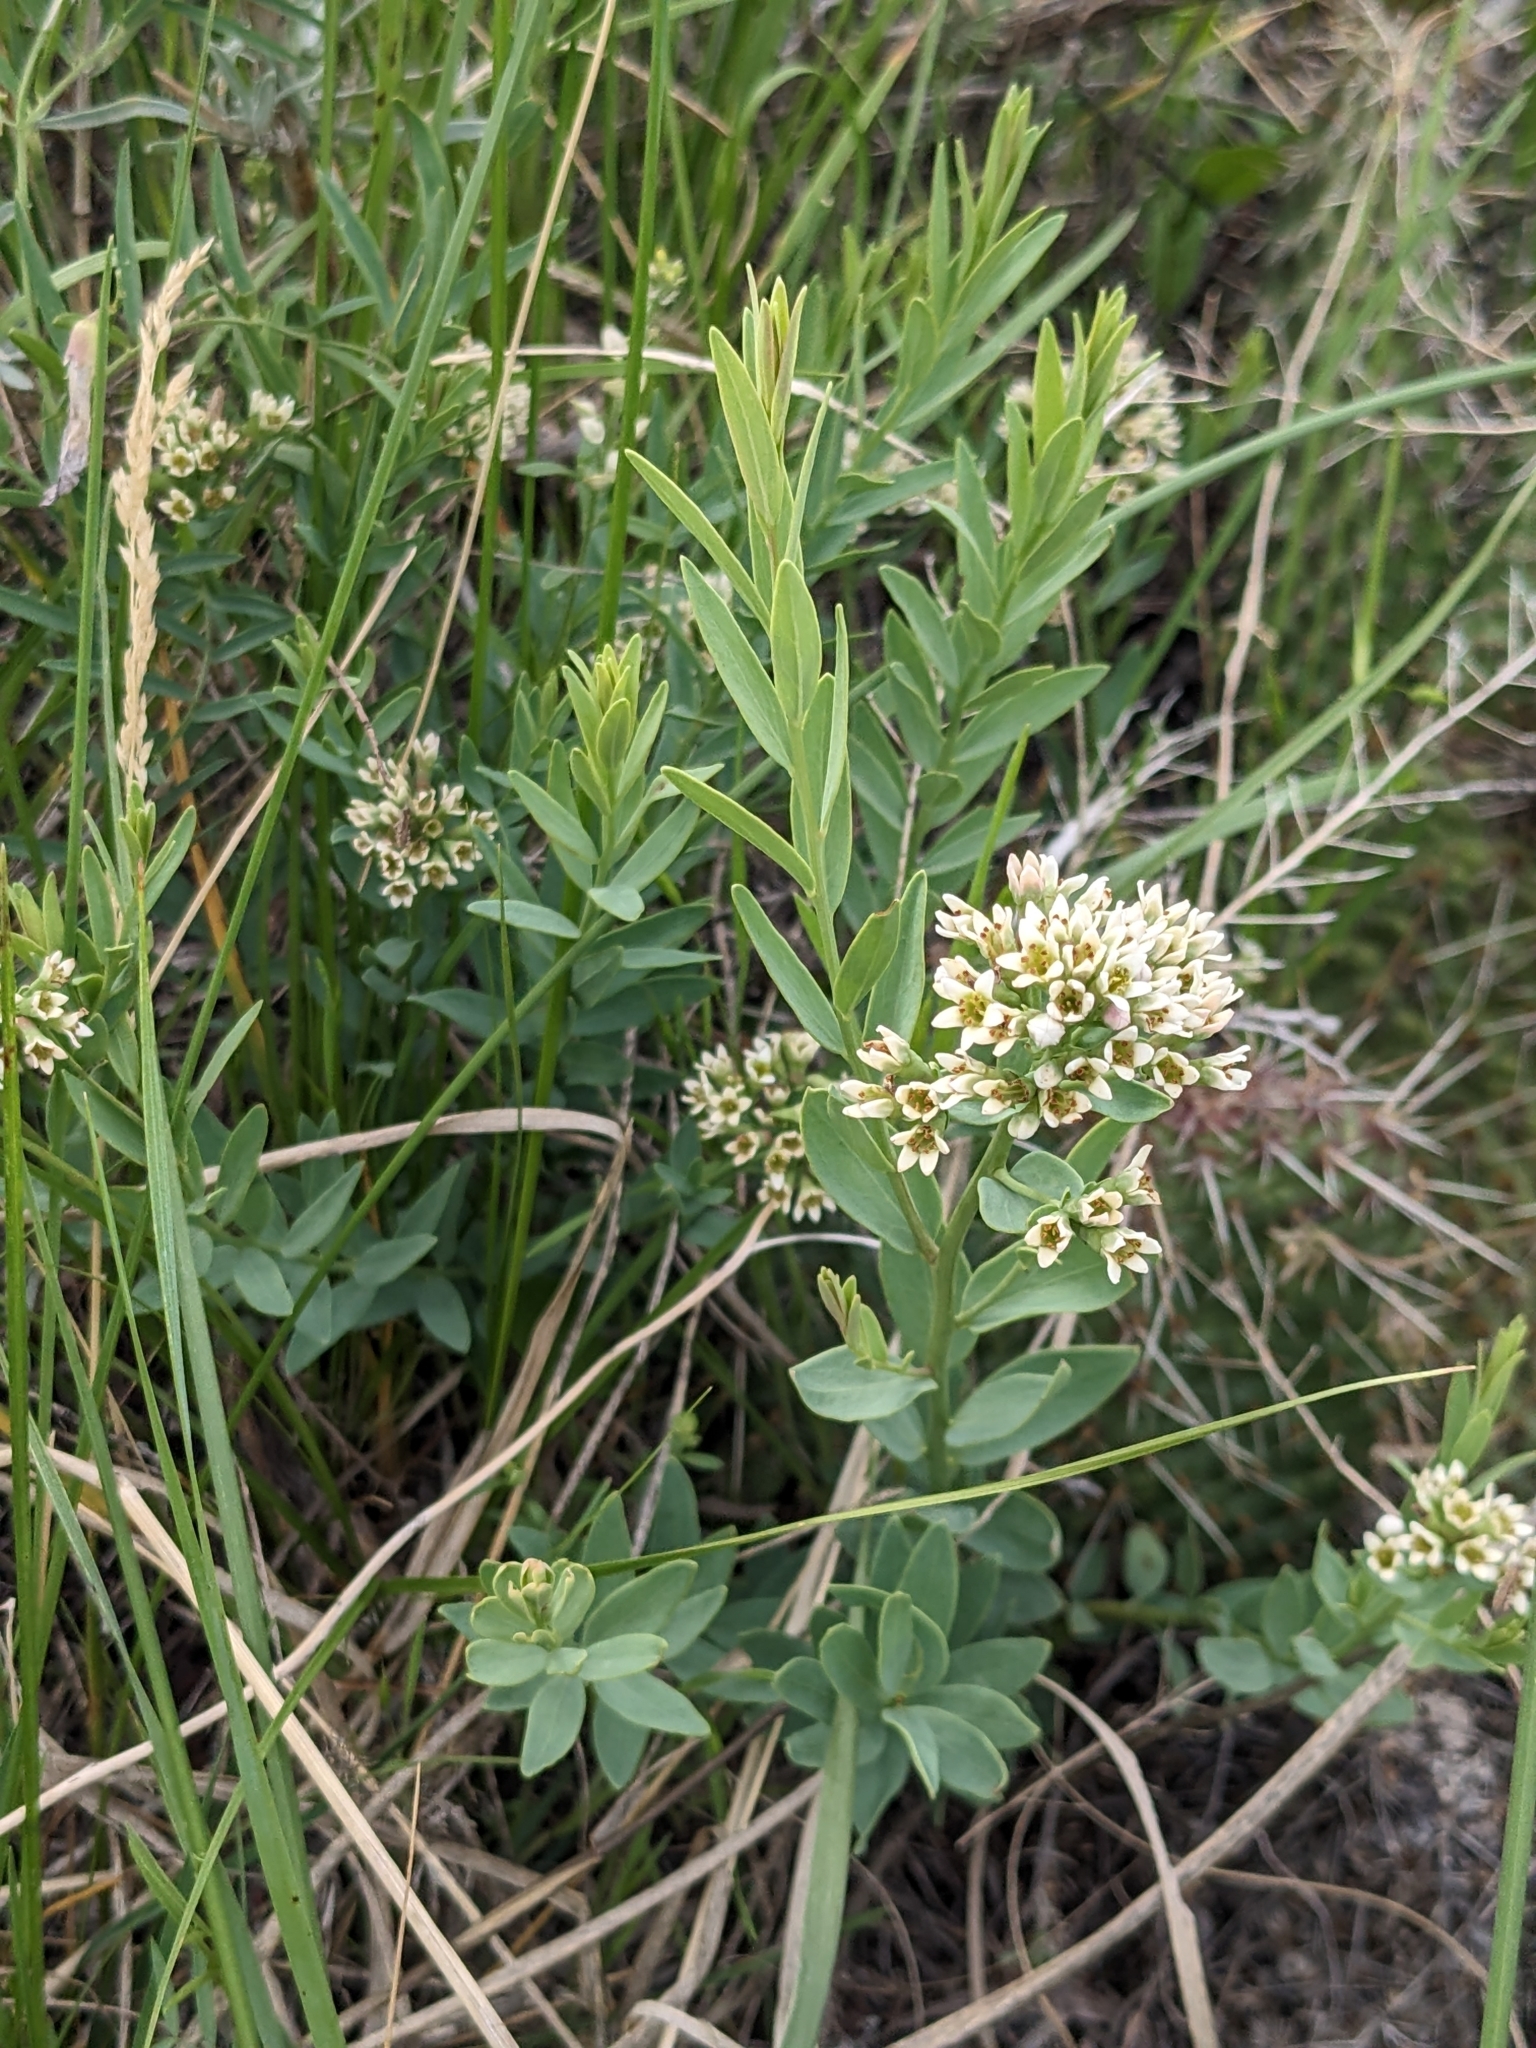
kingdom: Plantae
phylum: Tracheophyta
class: Magnoliopsida
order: Santalales
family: Comandraceae
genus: Comandra
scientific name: Comandra umbellata
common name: Bastard toadflax
